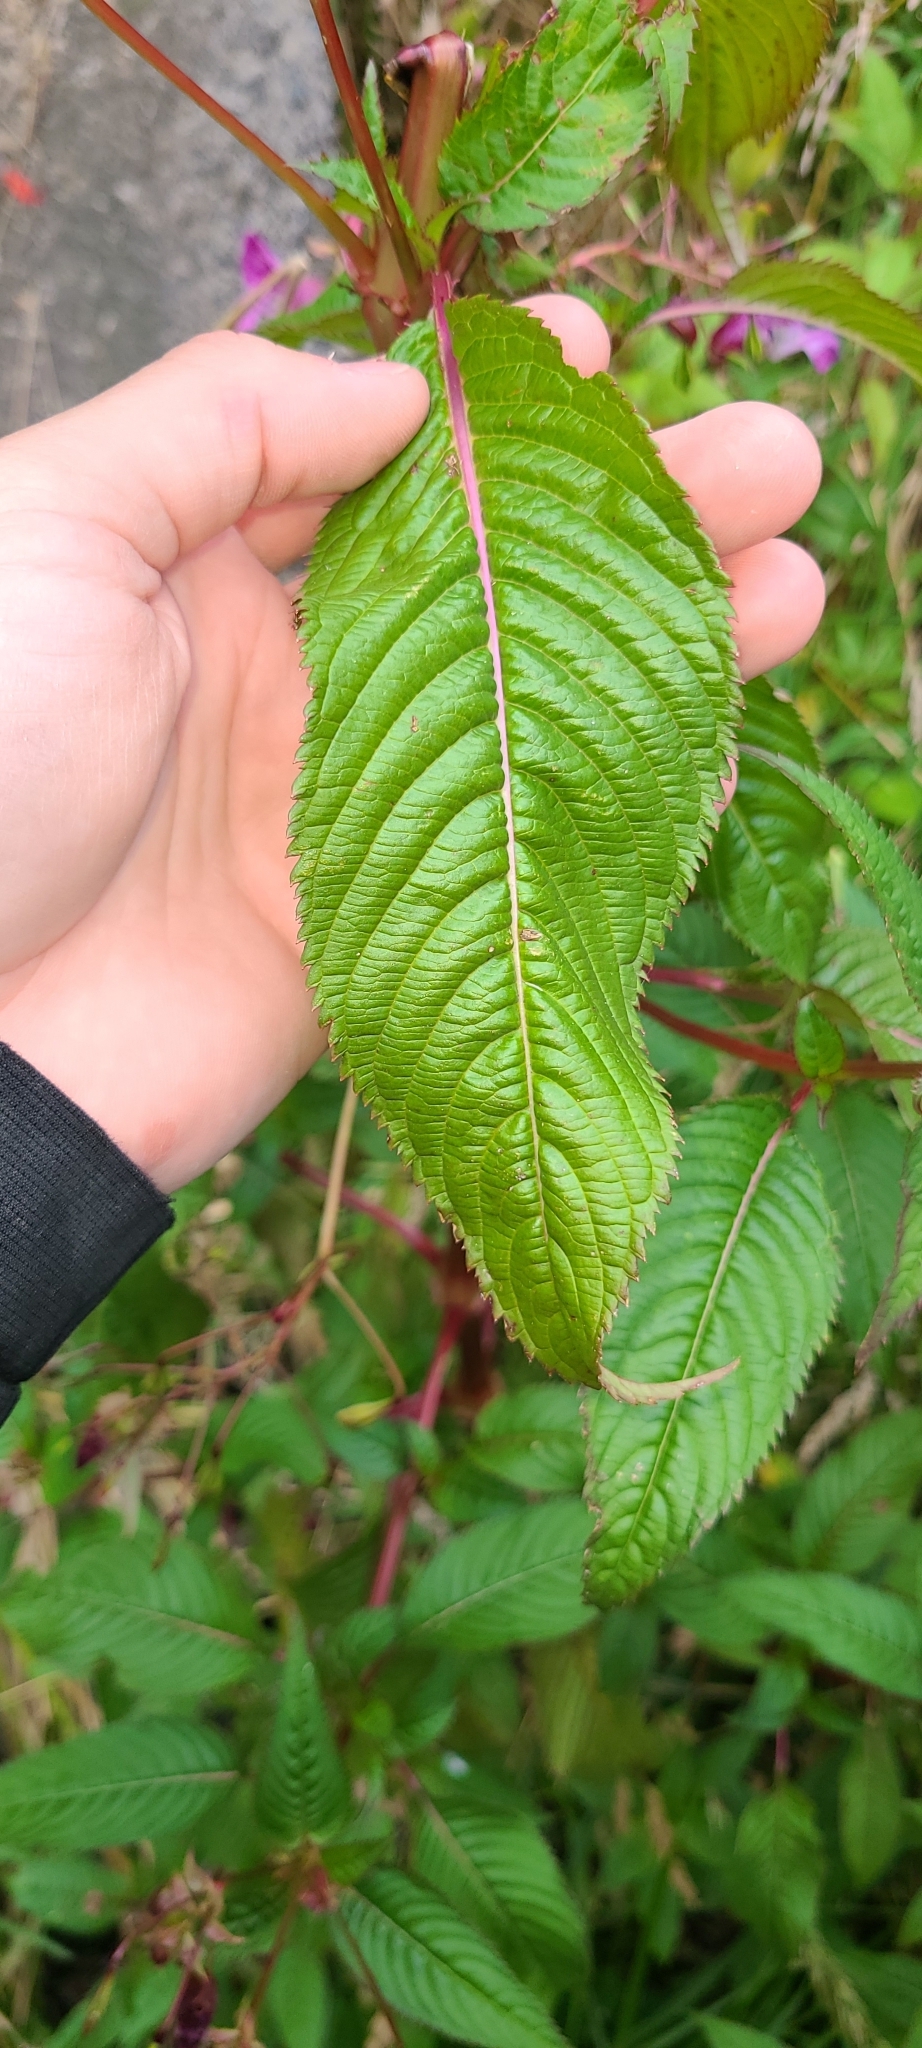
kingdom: Plantae
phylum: Tracheophyta
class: Magnoliopsida
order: Ericales
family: Balsaminaceae
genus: Impatiens
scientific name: Impatiens glandulifera
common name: Himalayan balsam
